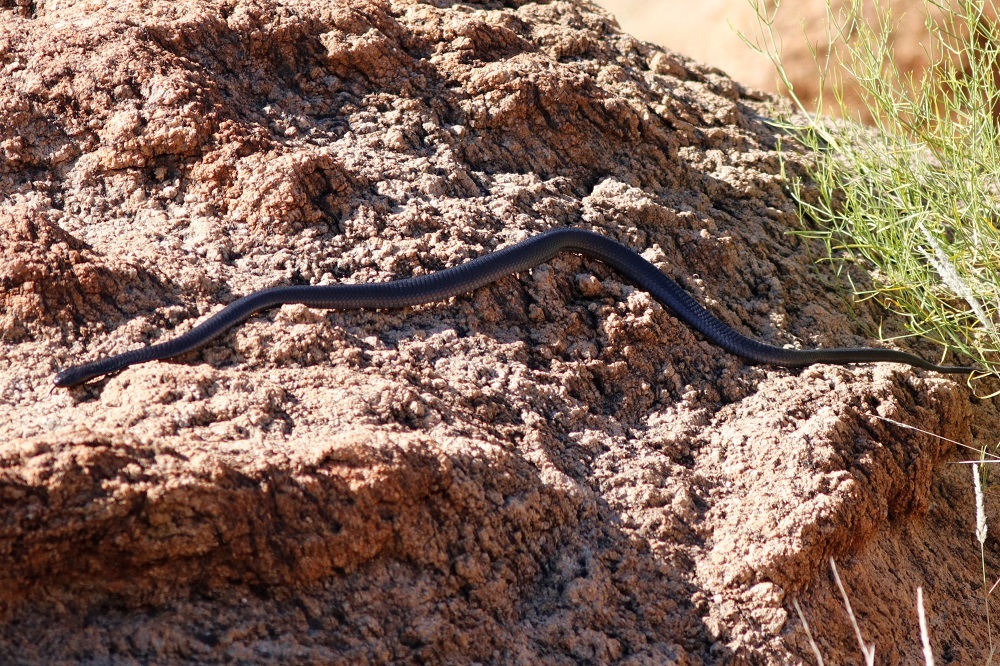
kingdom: Animalia
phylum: Chordata
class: Squamata
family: Elapidae
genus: Naja
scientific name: Naja nigricincta
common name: Black spitting cobra
